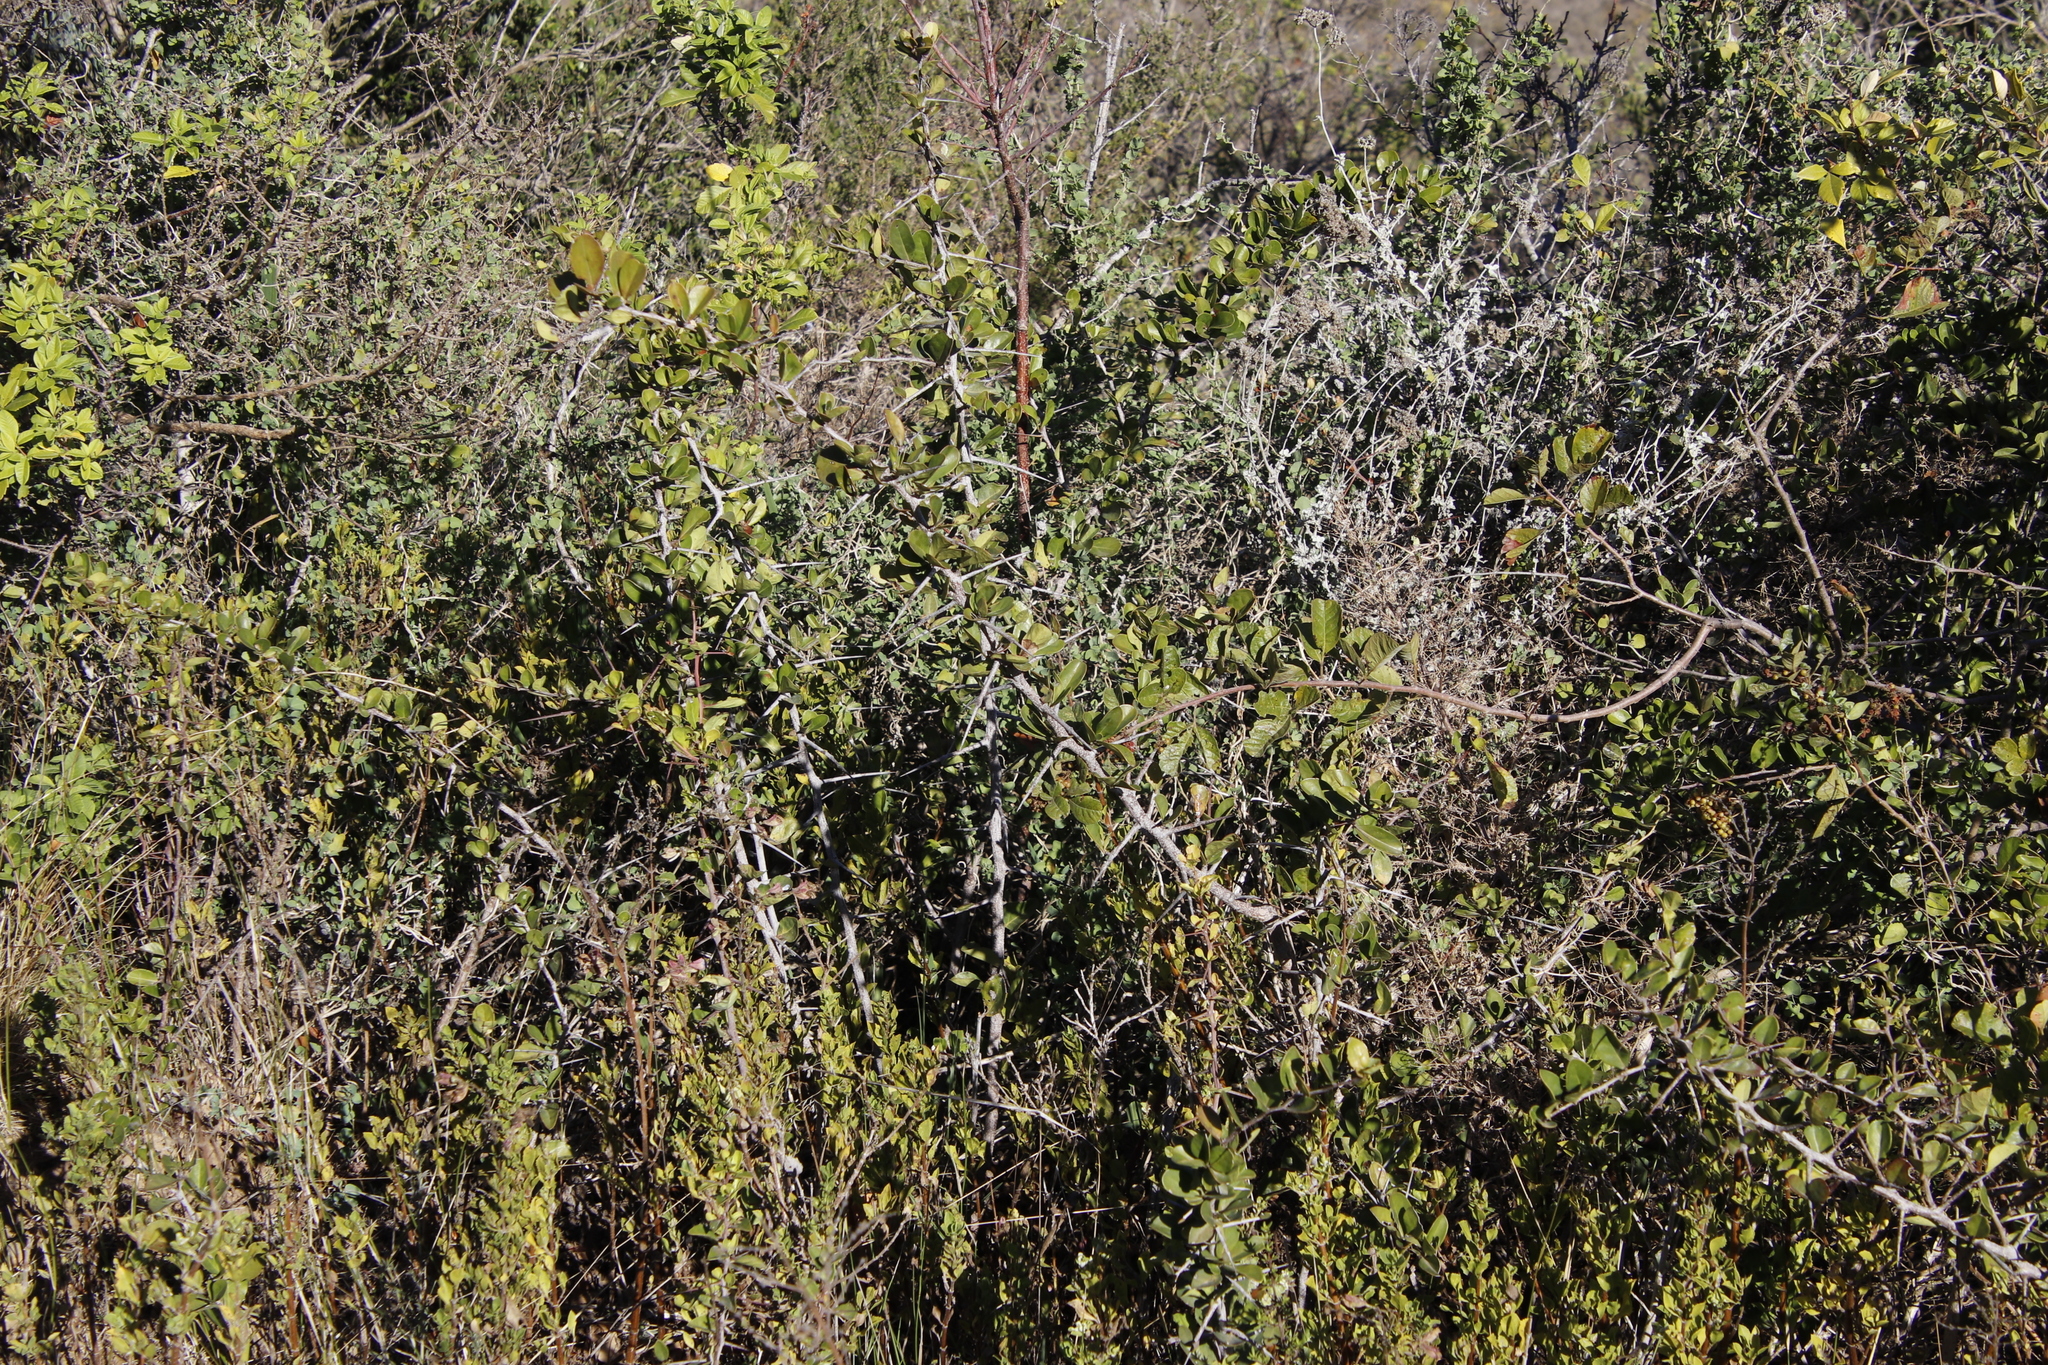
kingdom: Plantae
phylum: Tracheophyta
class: Magnoliopsida
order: Celastrales
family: Celastraceae
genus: Putterlickia
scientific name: Putterlickia pyracantha
